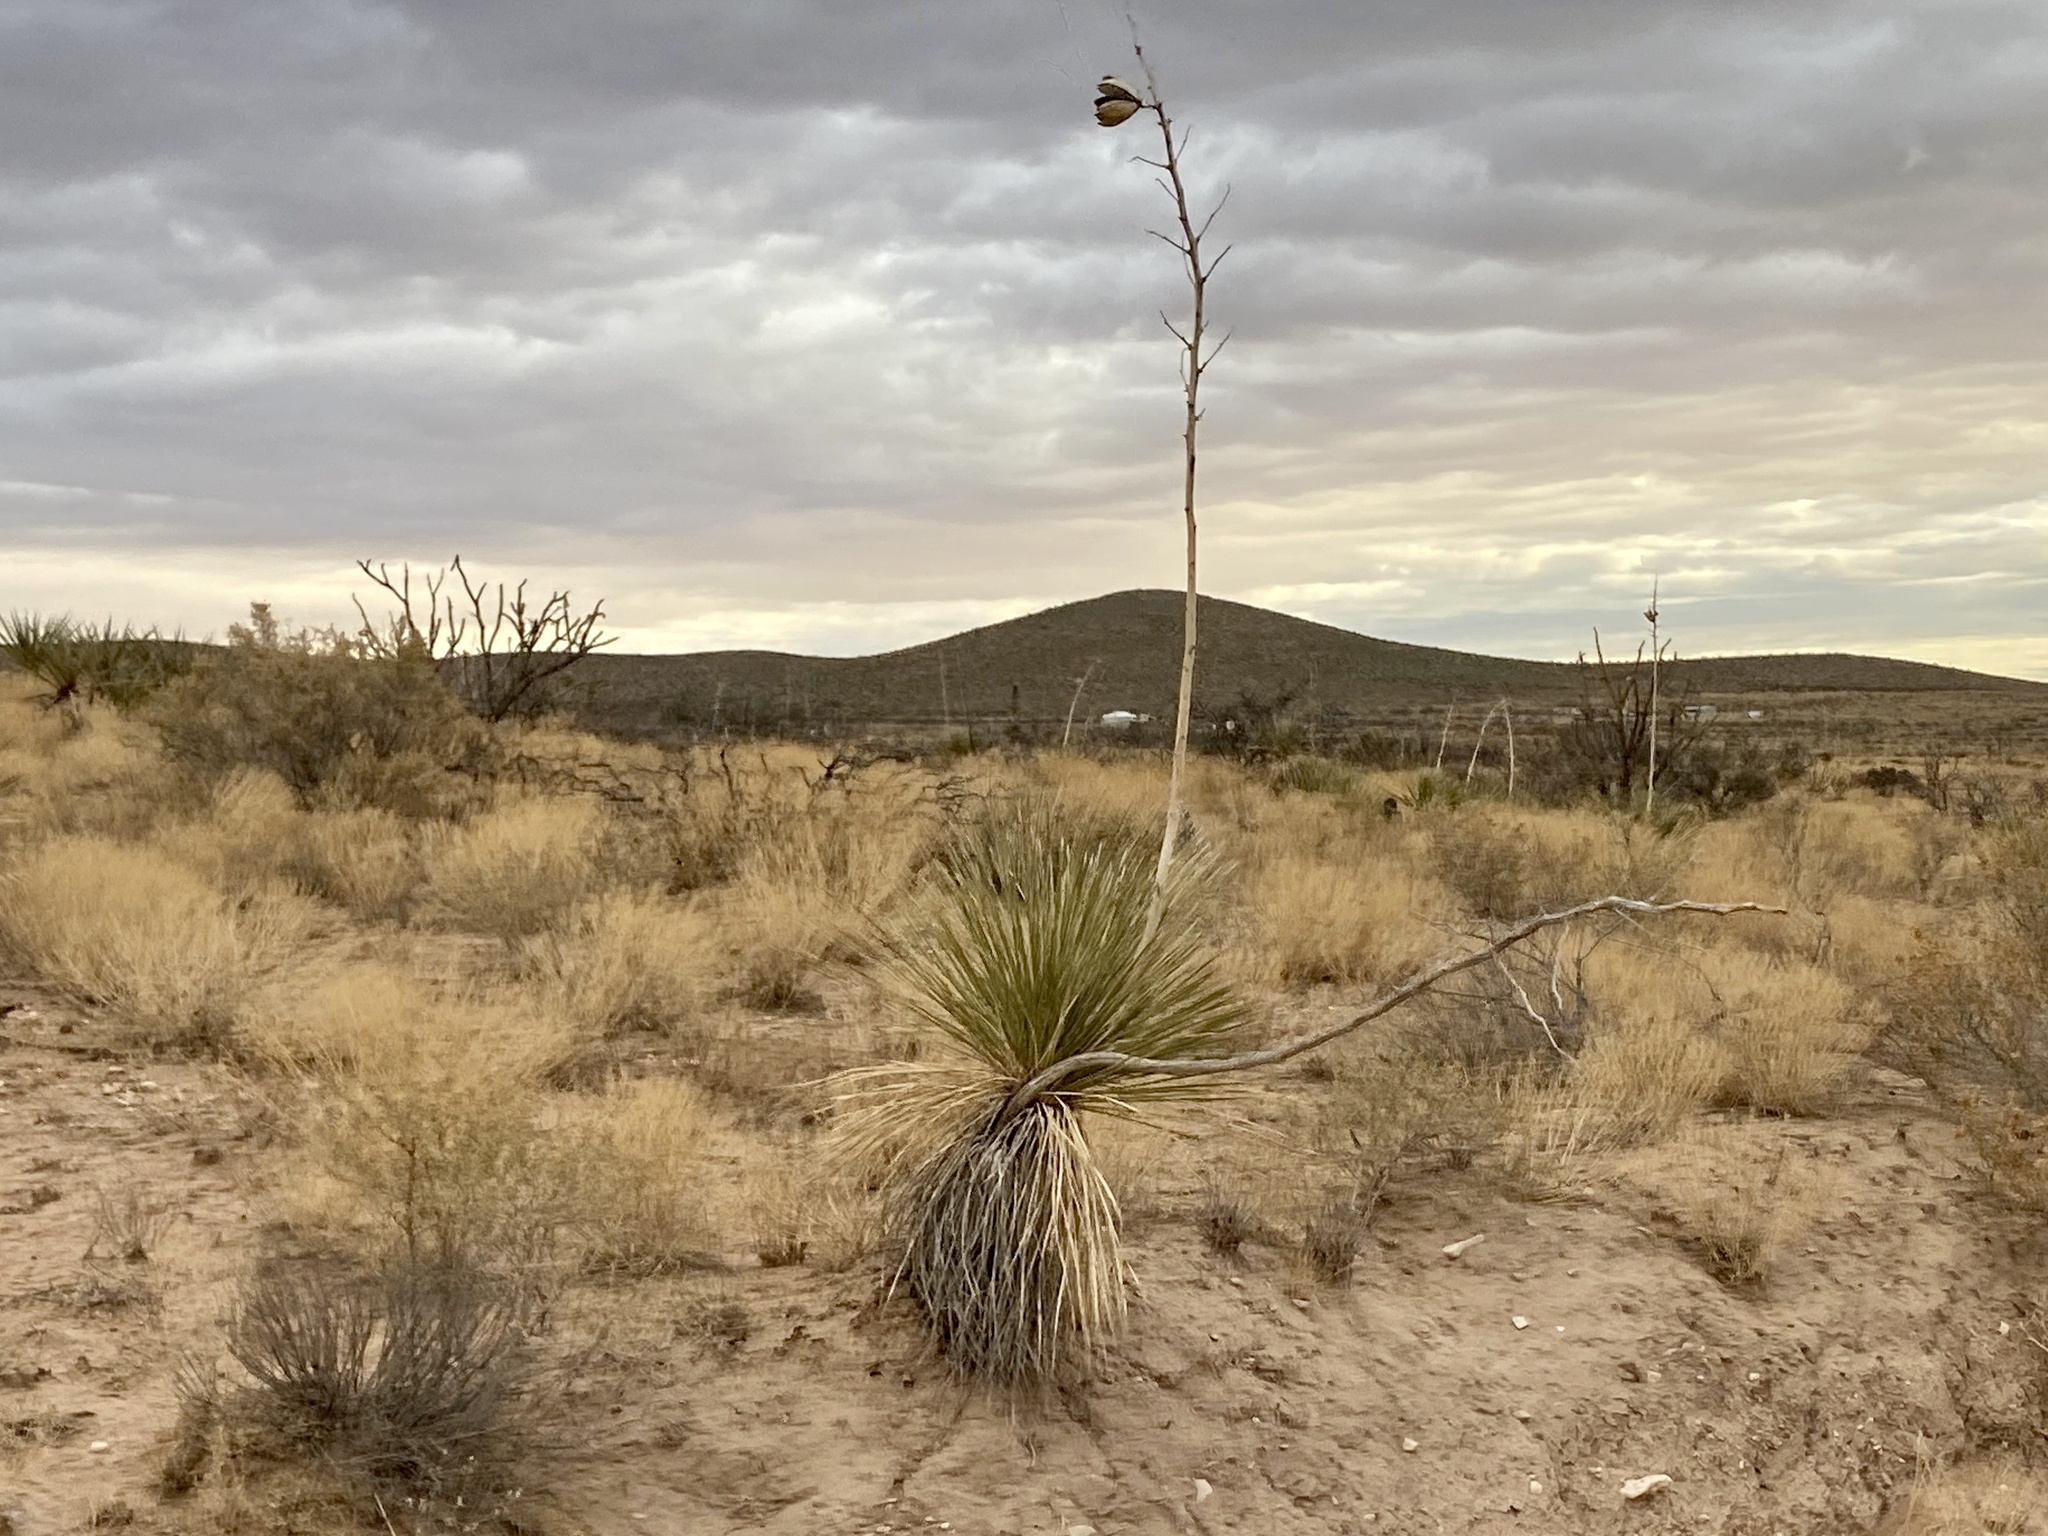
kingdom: Plantae
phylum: Tracheophyta
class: Liliopsida
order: Asparagales
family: Asparagaceae
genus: Yucca
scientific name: Yucca elata
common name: Palmella
